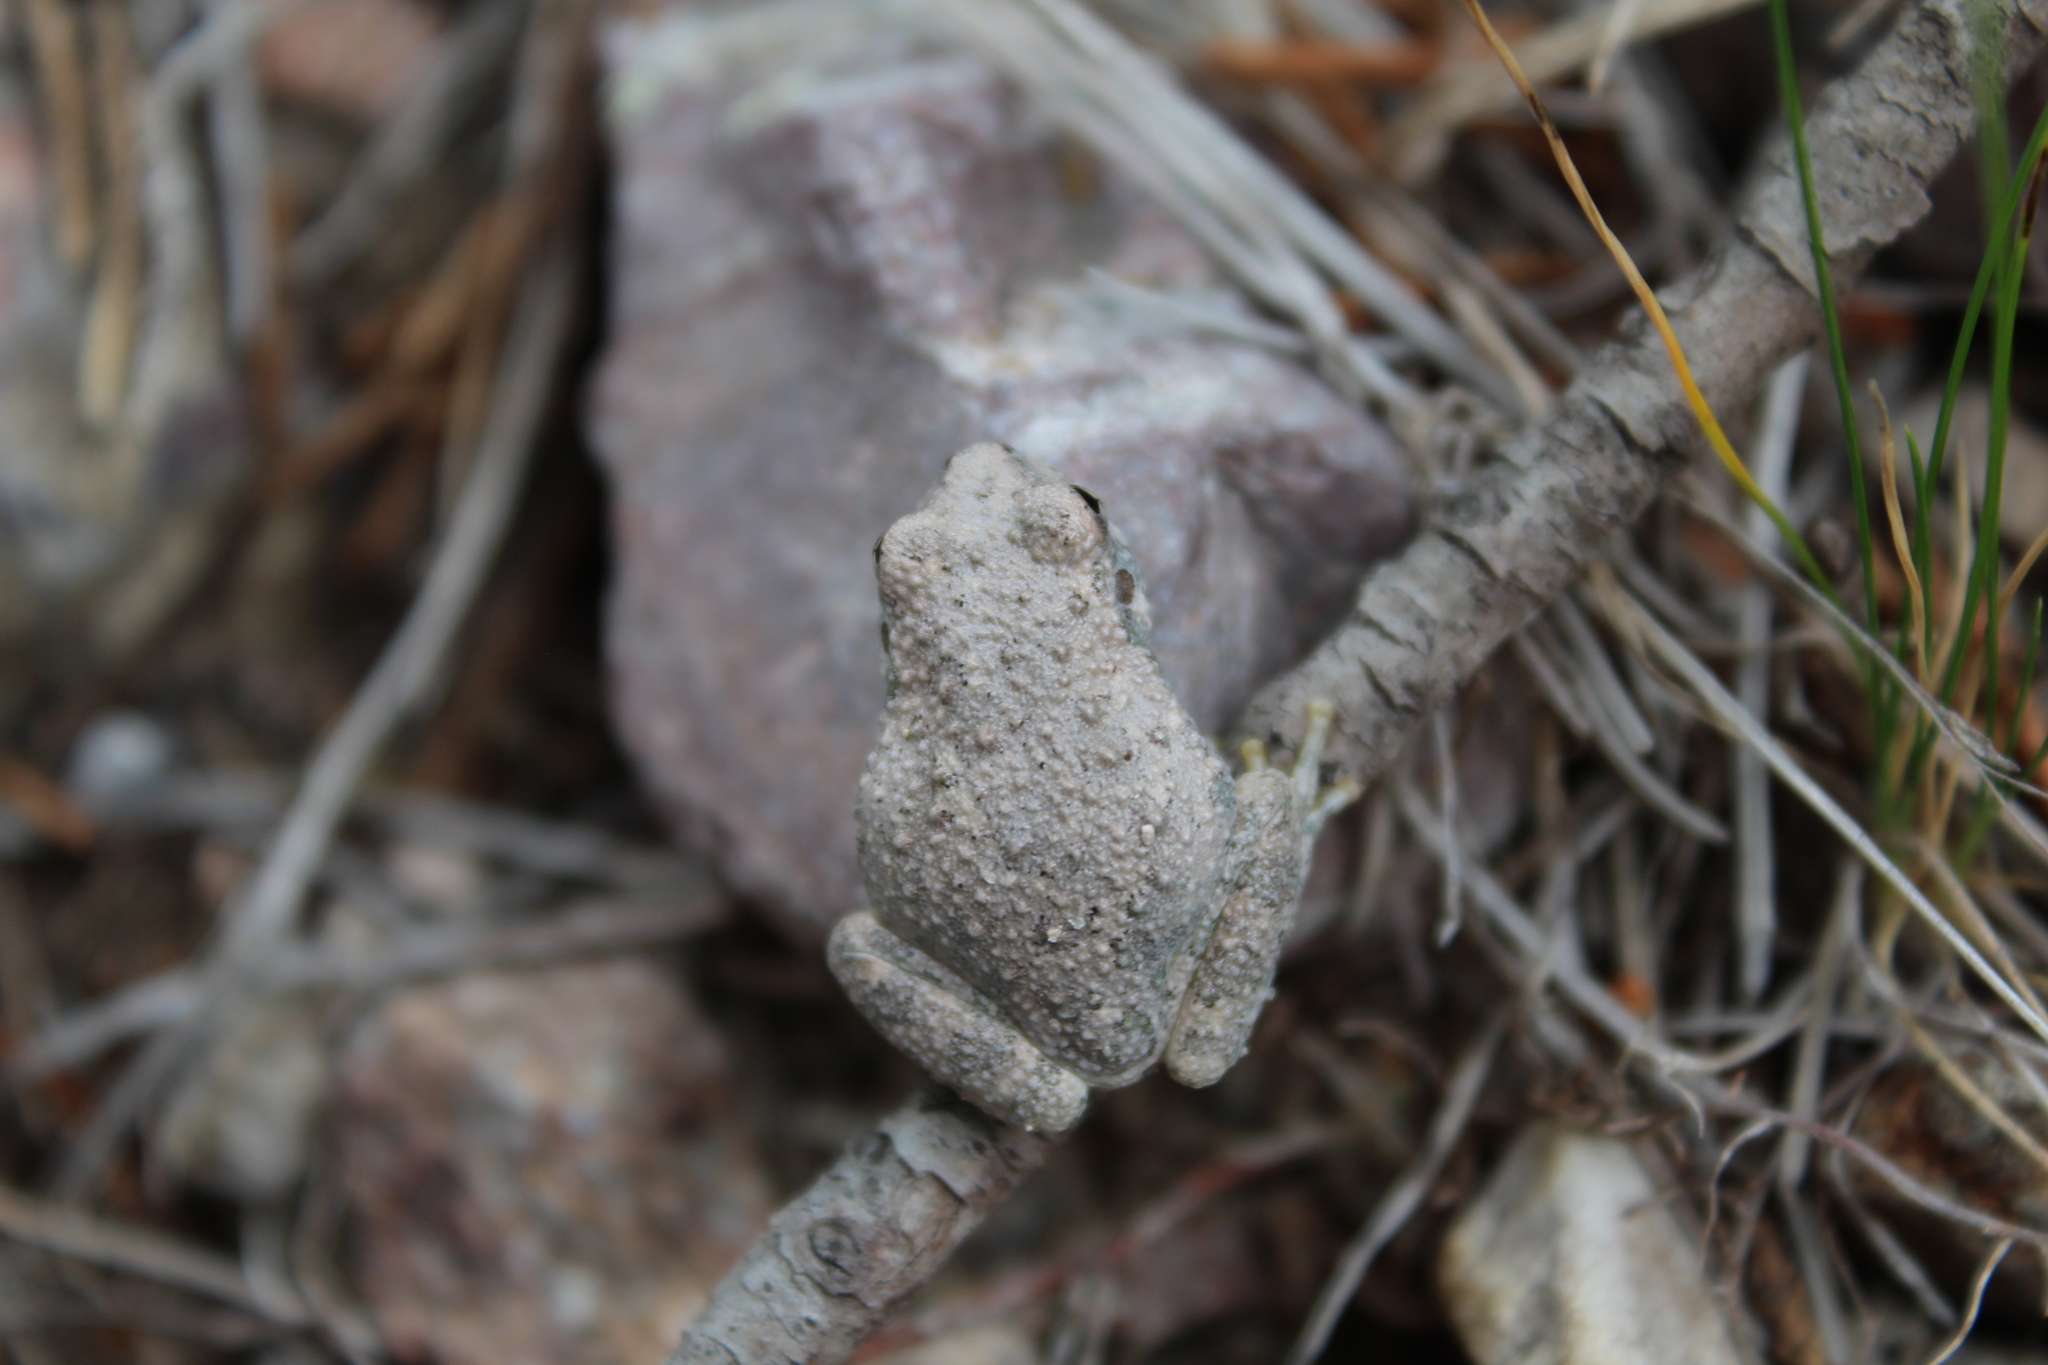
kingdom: Animalia
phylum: Chordata
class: Amphibia
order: Anura
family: Hylidae
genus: Dryophytes
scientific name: Dryophytes arenicolor
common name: Canyon treefrog
